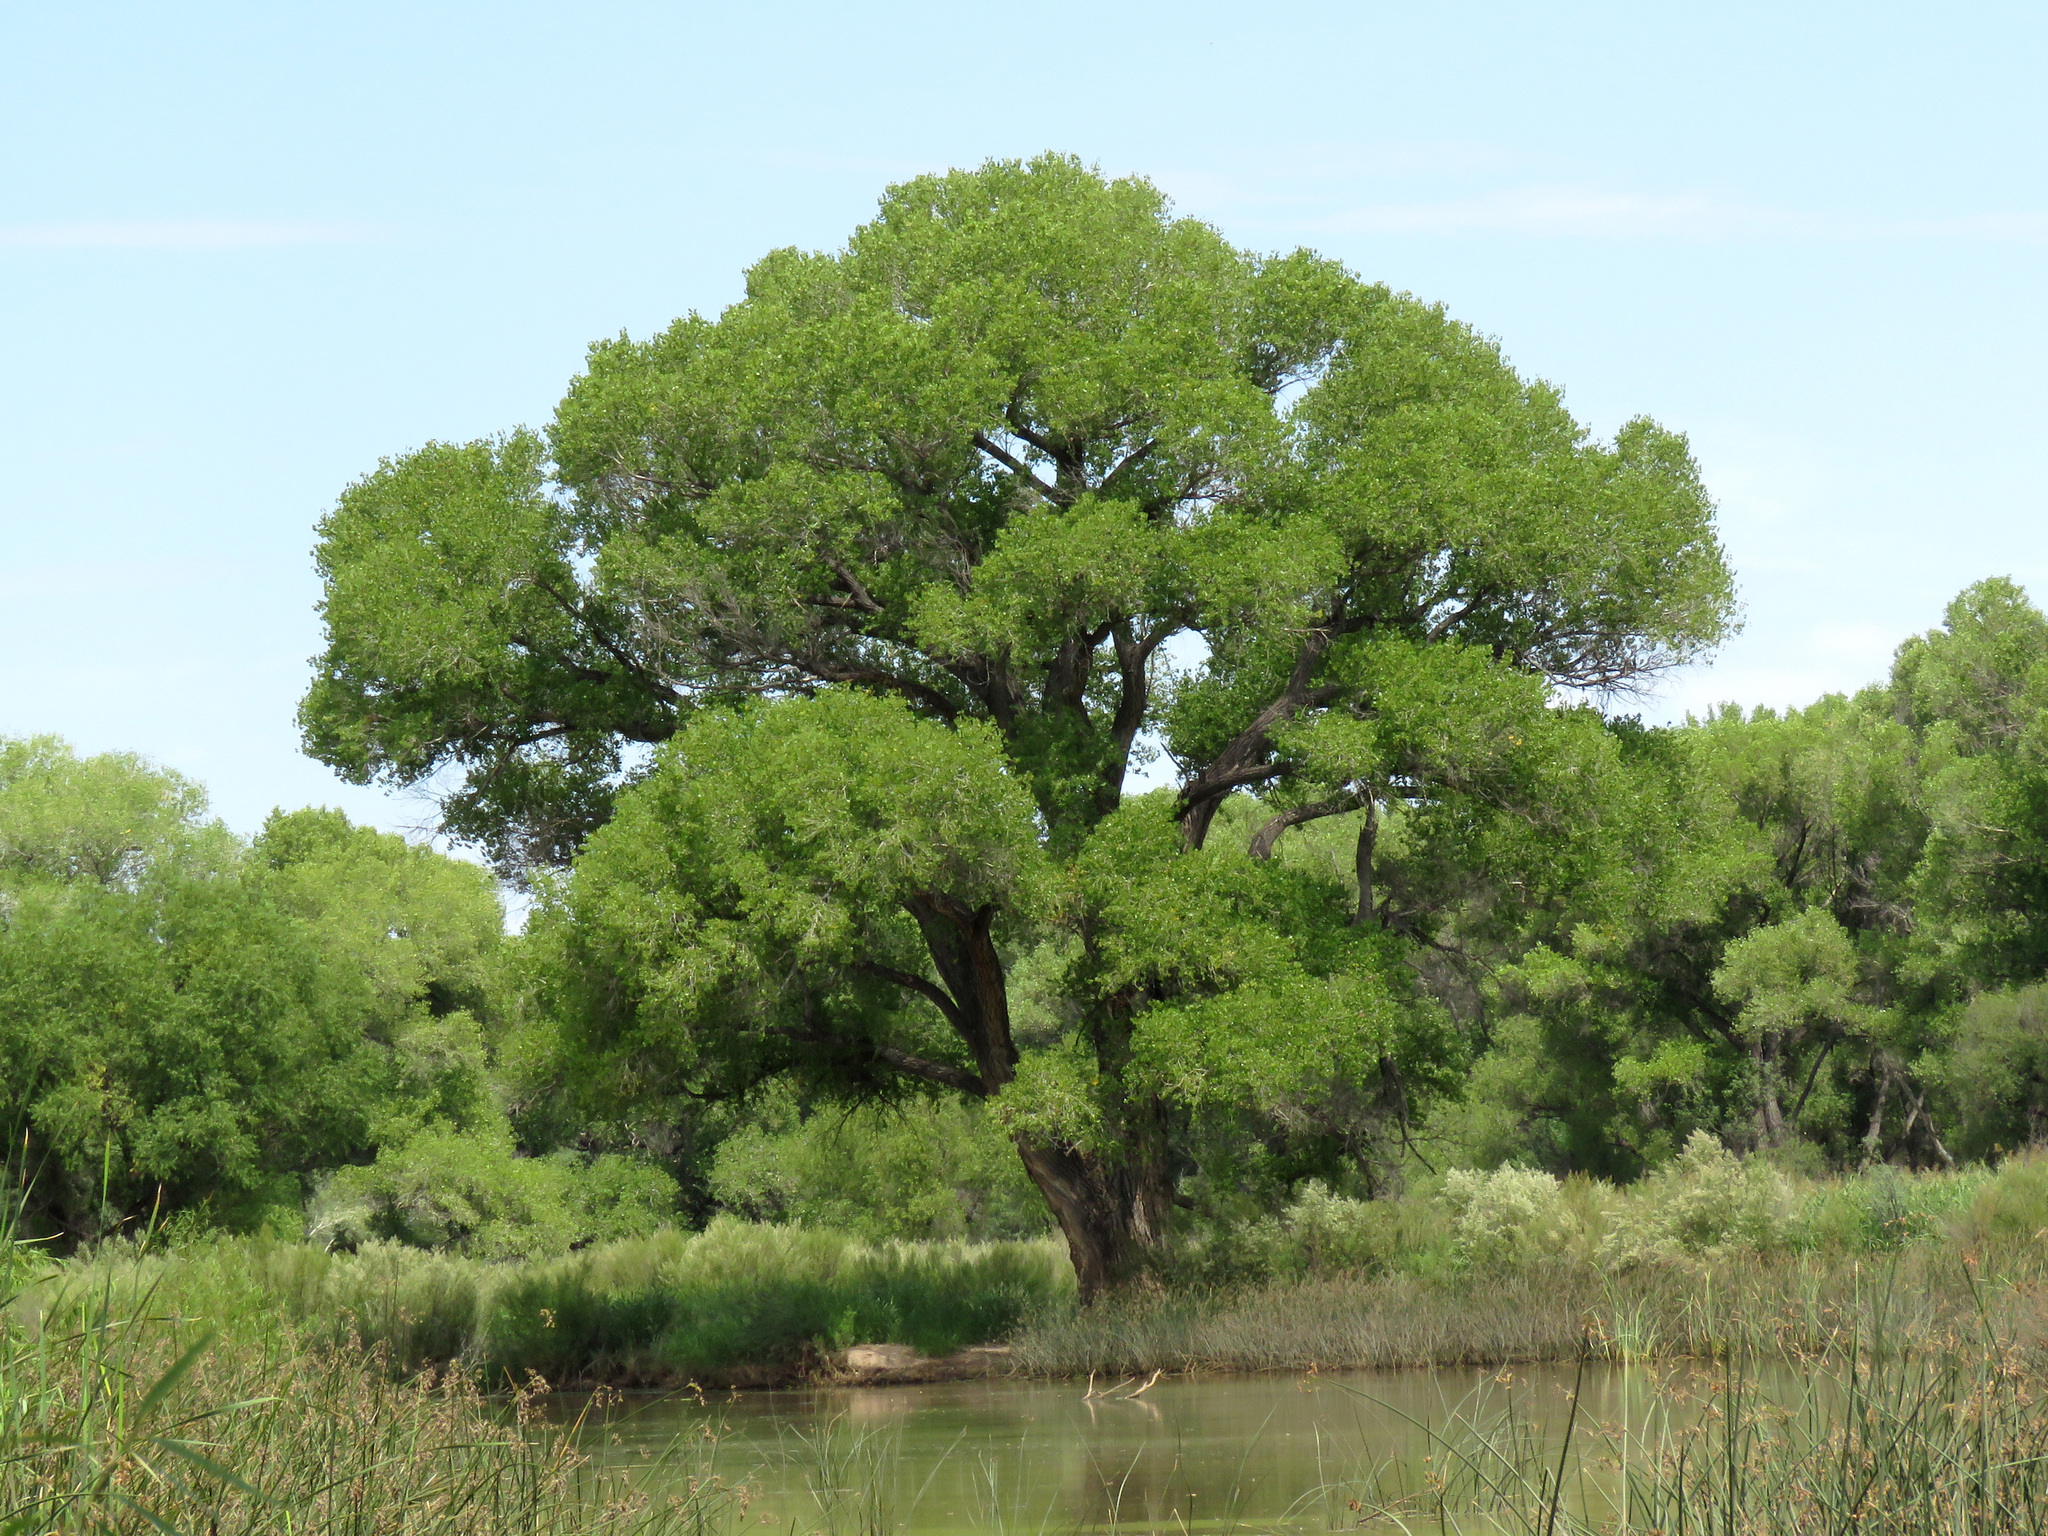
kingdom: Plantae
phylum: Tracheophyta
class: Magnoliopsida
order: Malpighiales
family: Salicaceae
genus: Populus
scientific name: Populus fremontii
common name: Fremont's cottonwood
